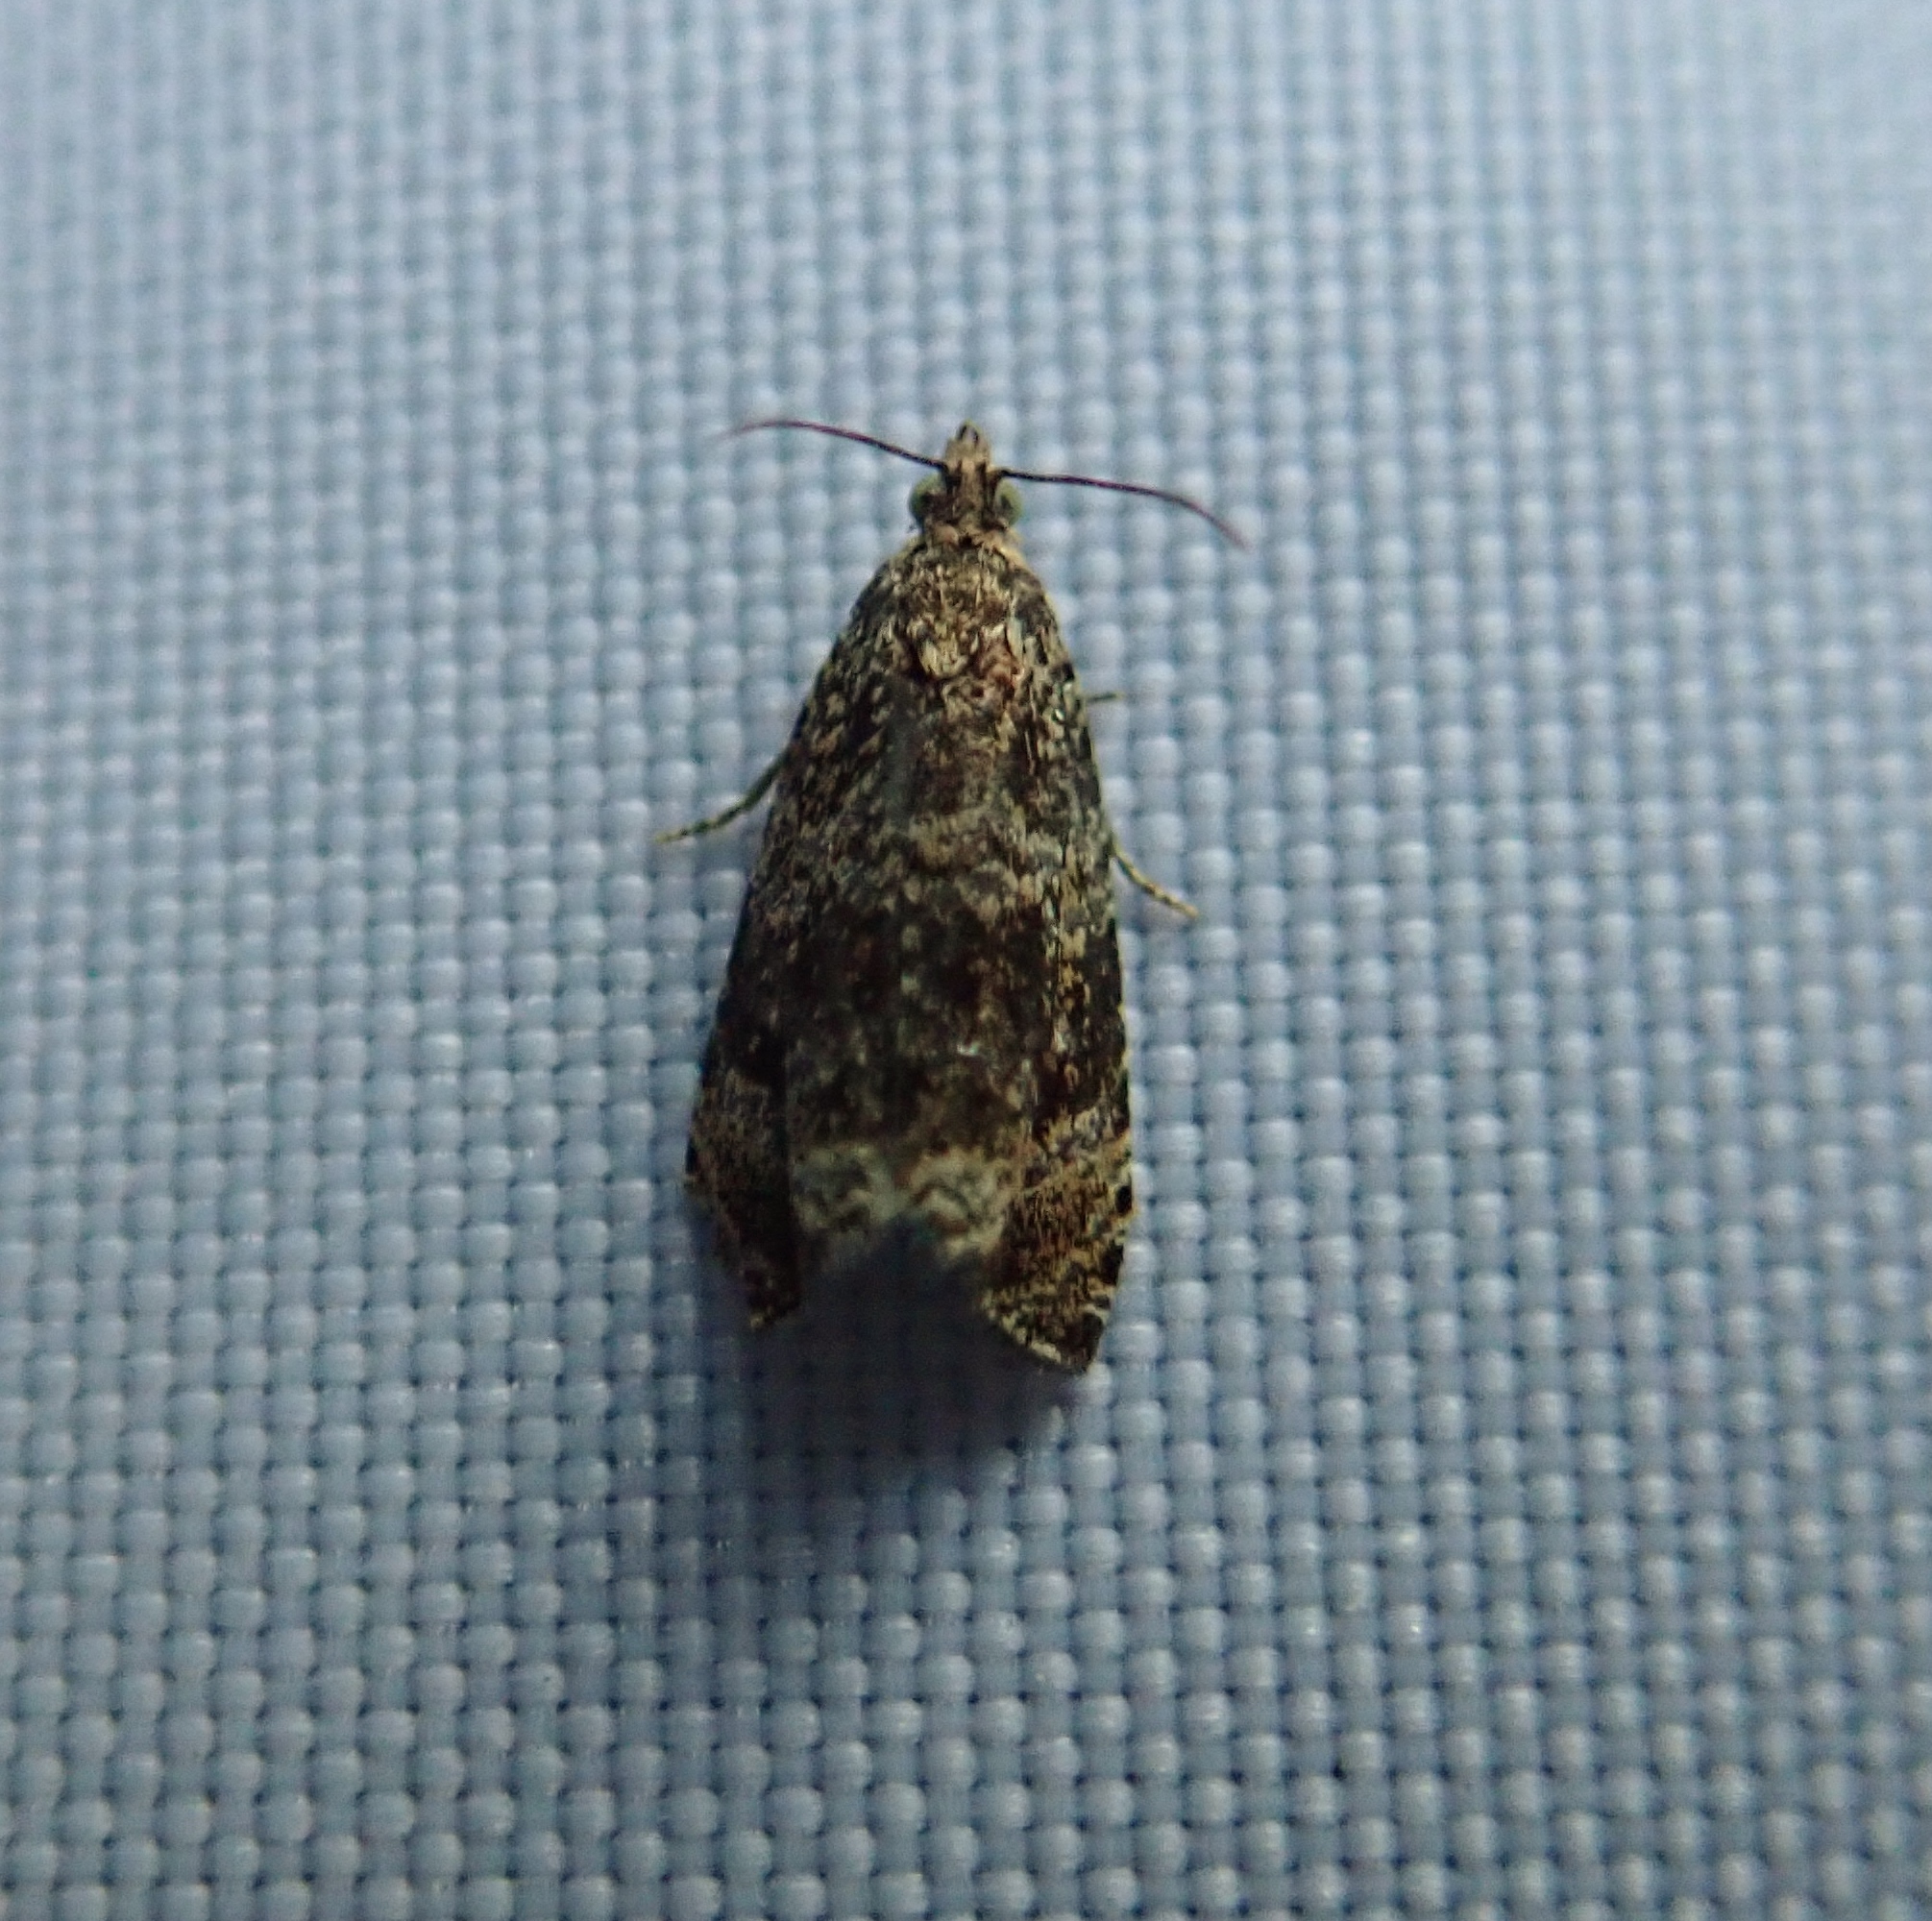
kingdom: Animalia
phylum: Arthropoda
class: Insecta
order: Lepidoptera
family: Tortricidae
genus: Syricoris
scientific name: Syricoris lacunana
